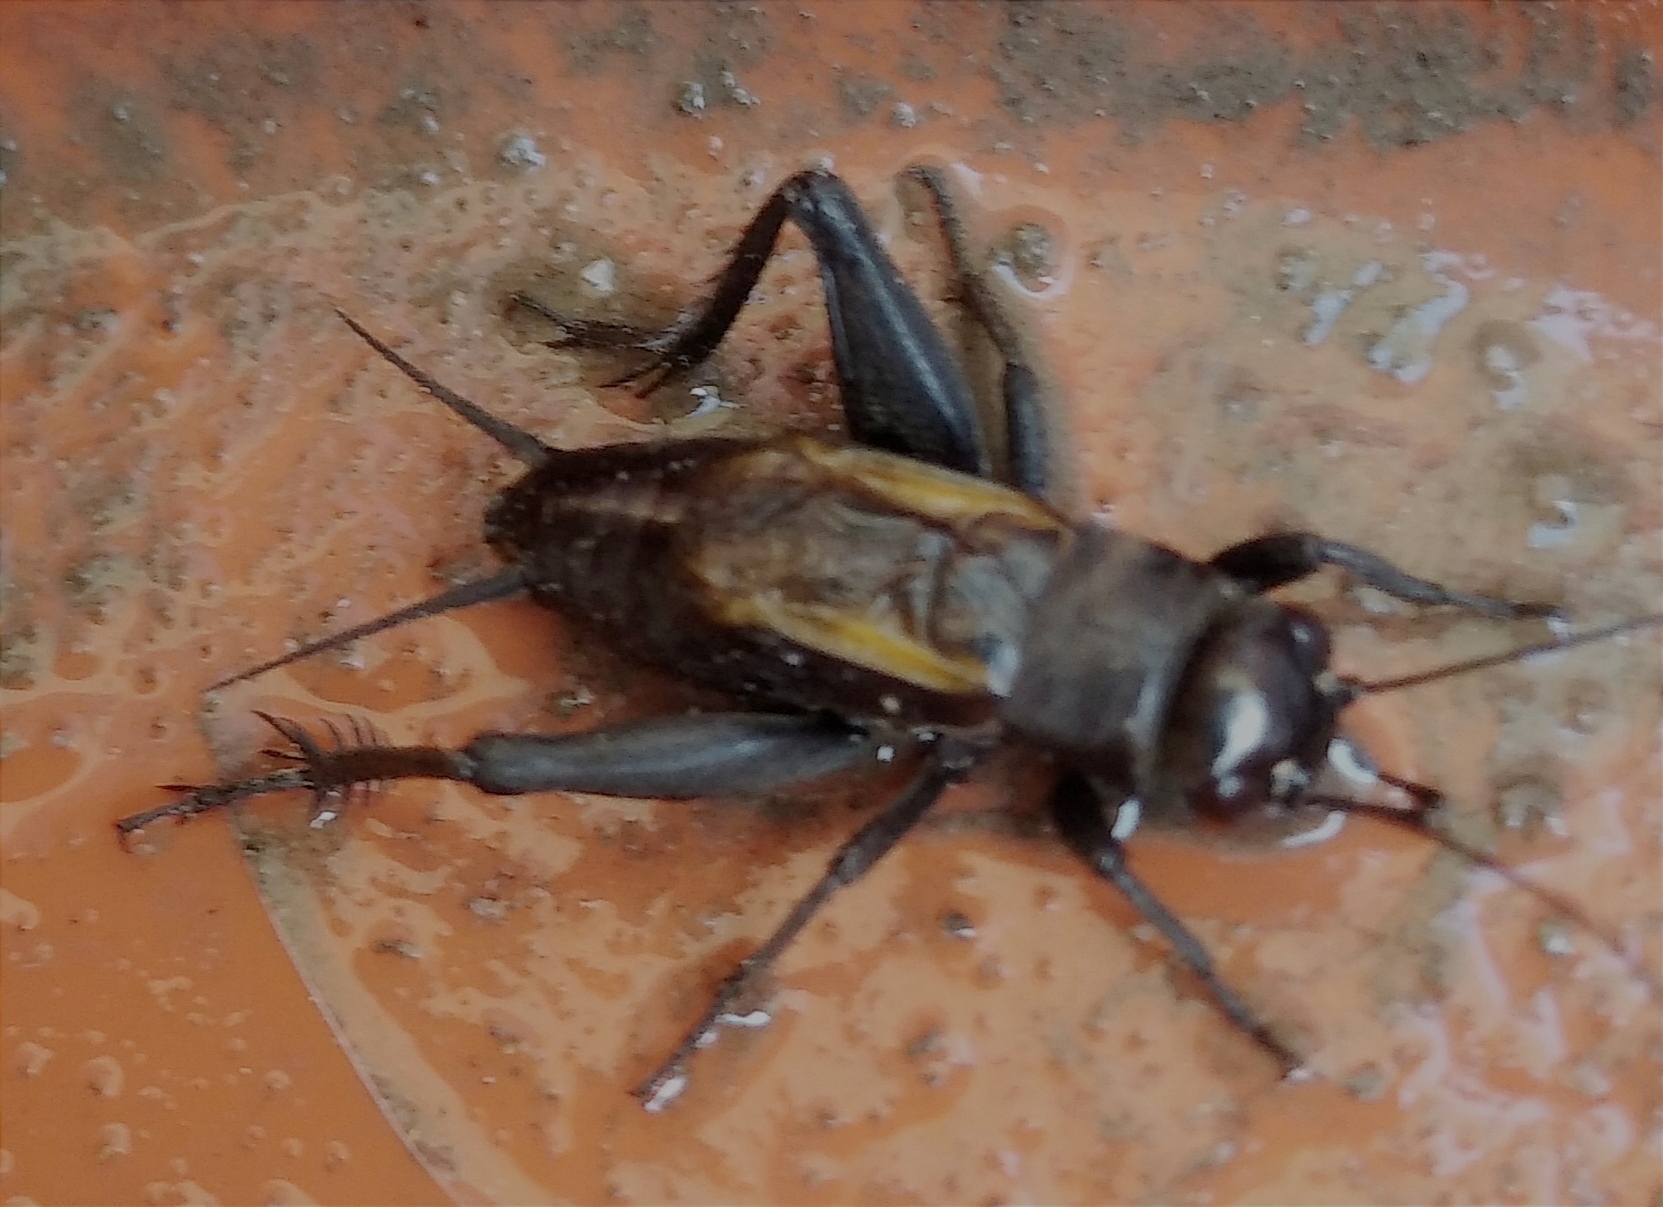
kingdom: Animalia
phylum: Arthropoda
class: Insecta
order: Orthoptera
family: Gryllidae
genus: Melanogryllus
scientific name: Melanogryllus desertus
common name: Desert cricket
